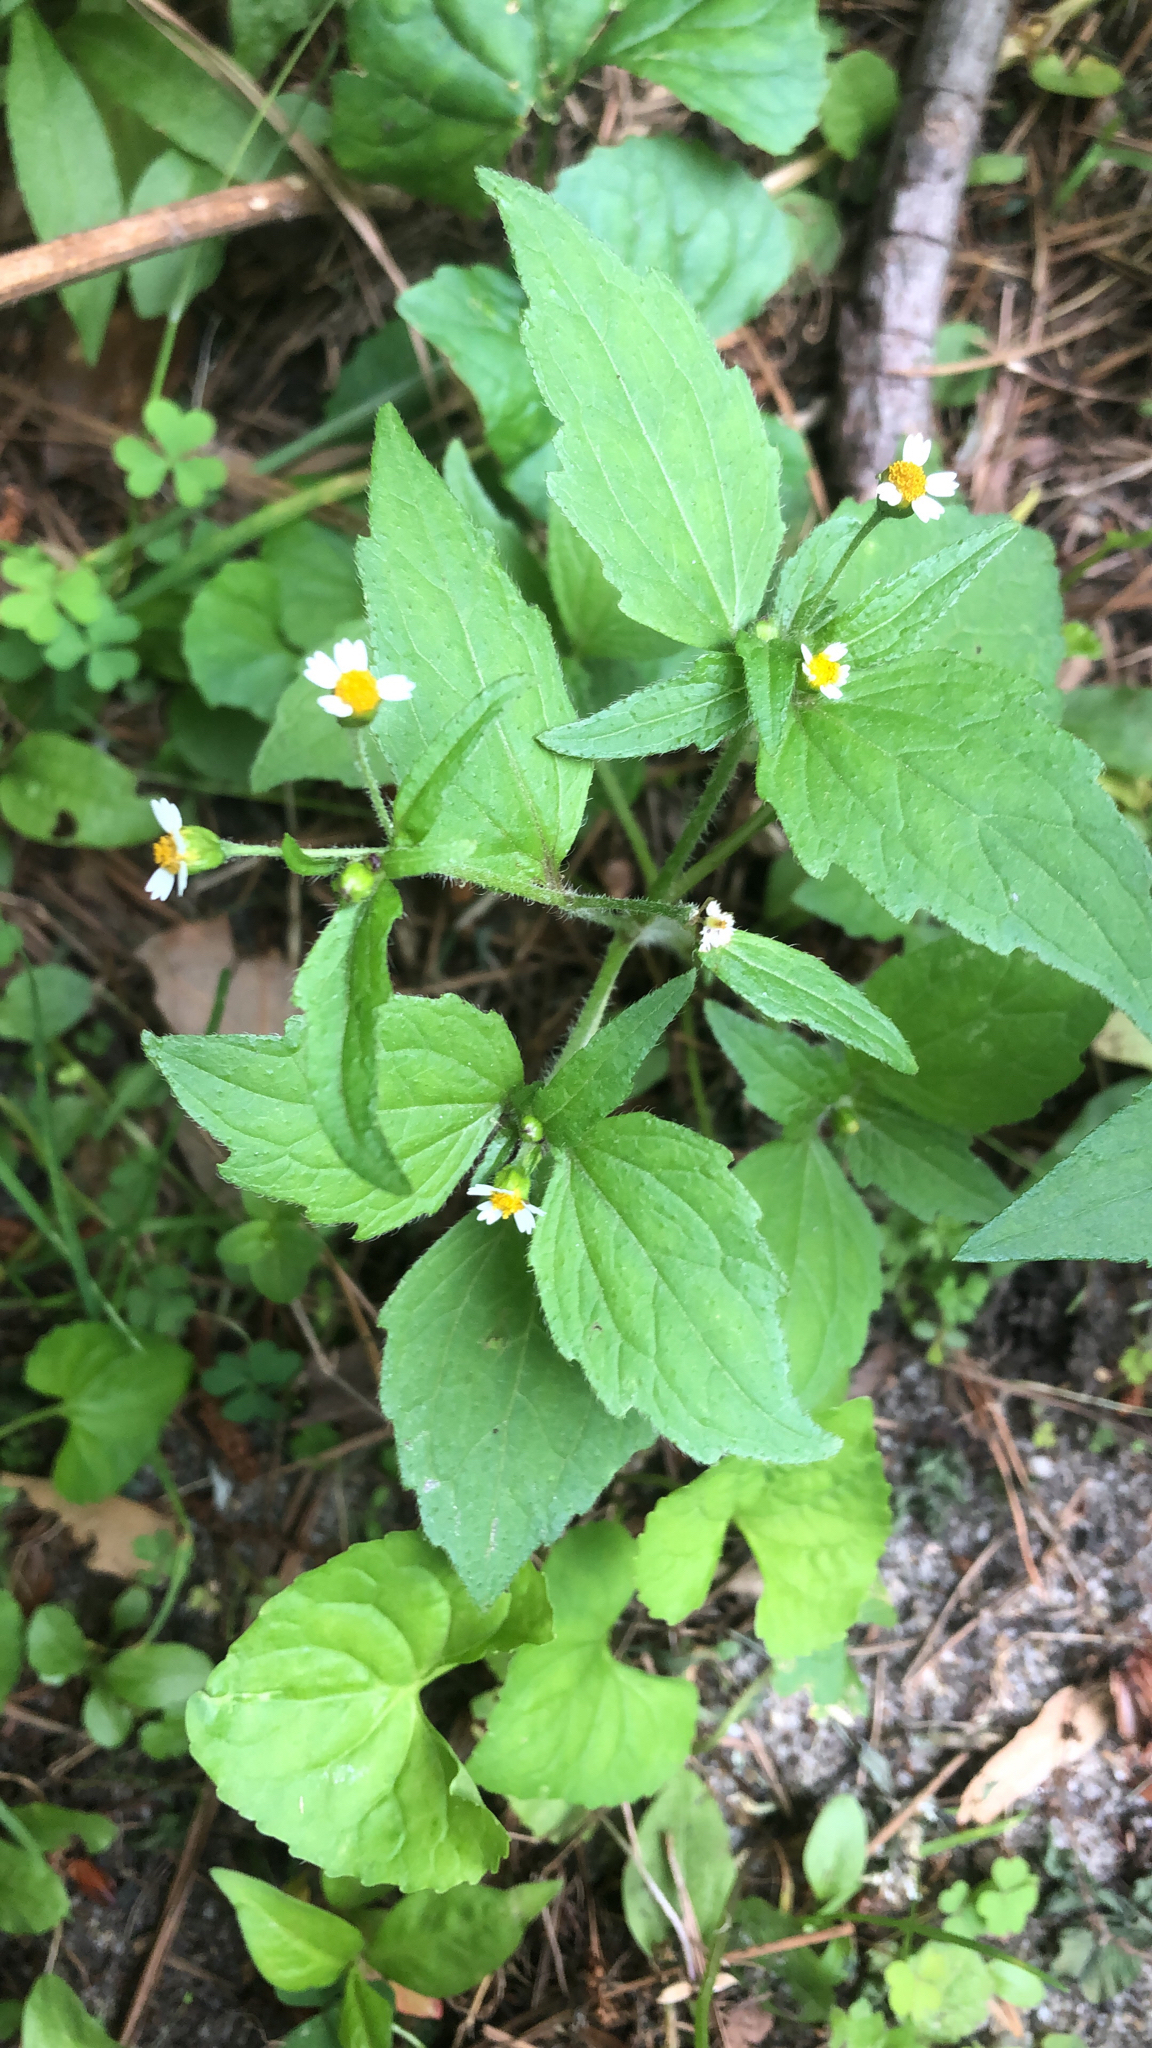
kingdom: Plantae
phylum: Tracheophyta
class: Magnoliopsida
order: Asterales
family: Asteraceae
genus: Galinsoga
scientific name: Galinsoga quadriradiata
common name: Shaggy soldier
